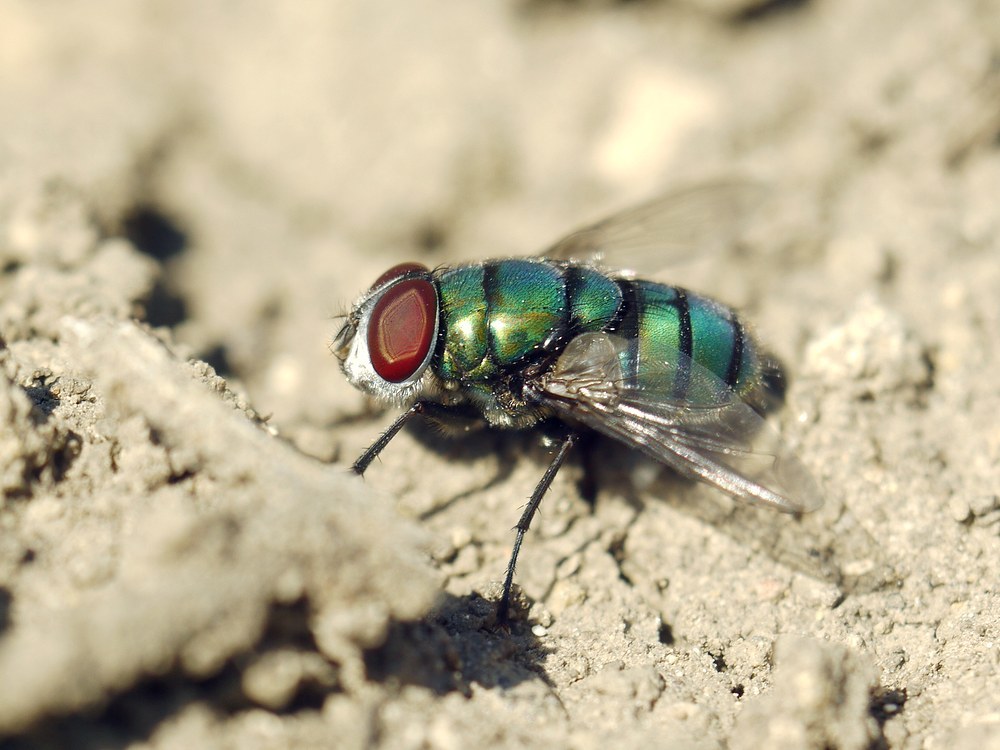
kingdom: Animalia
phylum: Arthropoda
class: Insecta
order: Diptera
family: Calliphoridae
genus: Chrysomya
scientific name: Chrysomya albiceps
